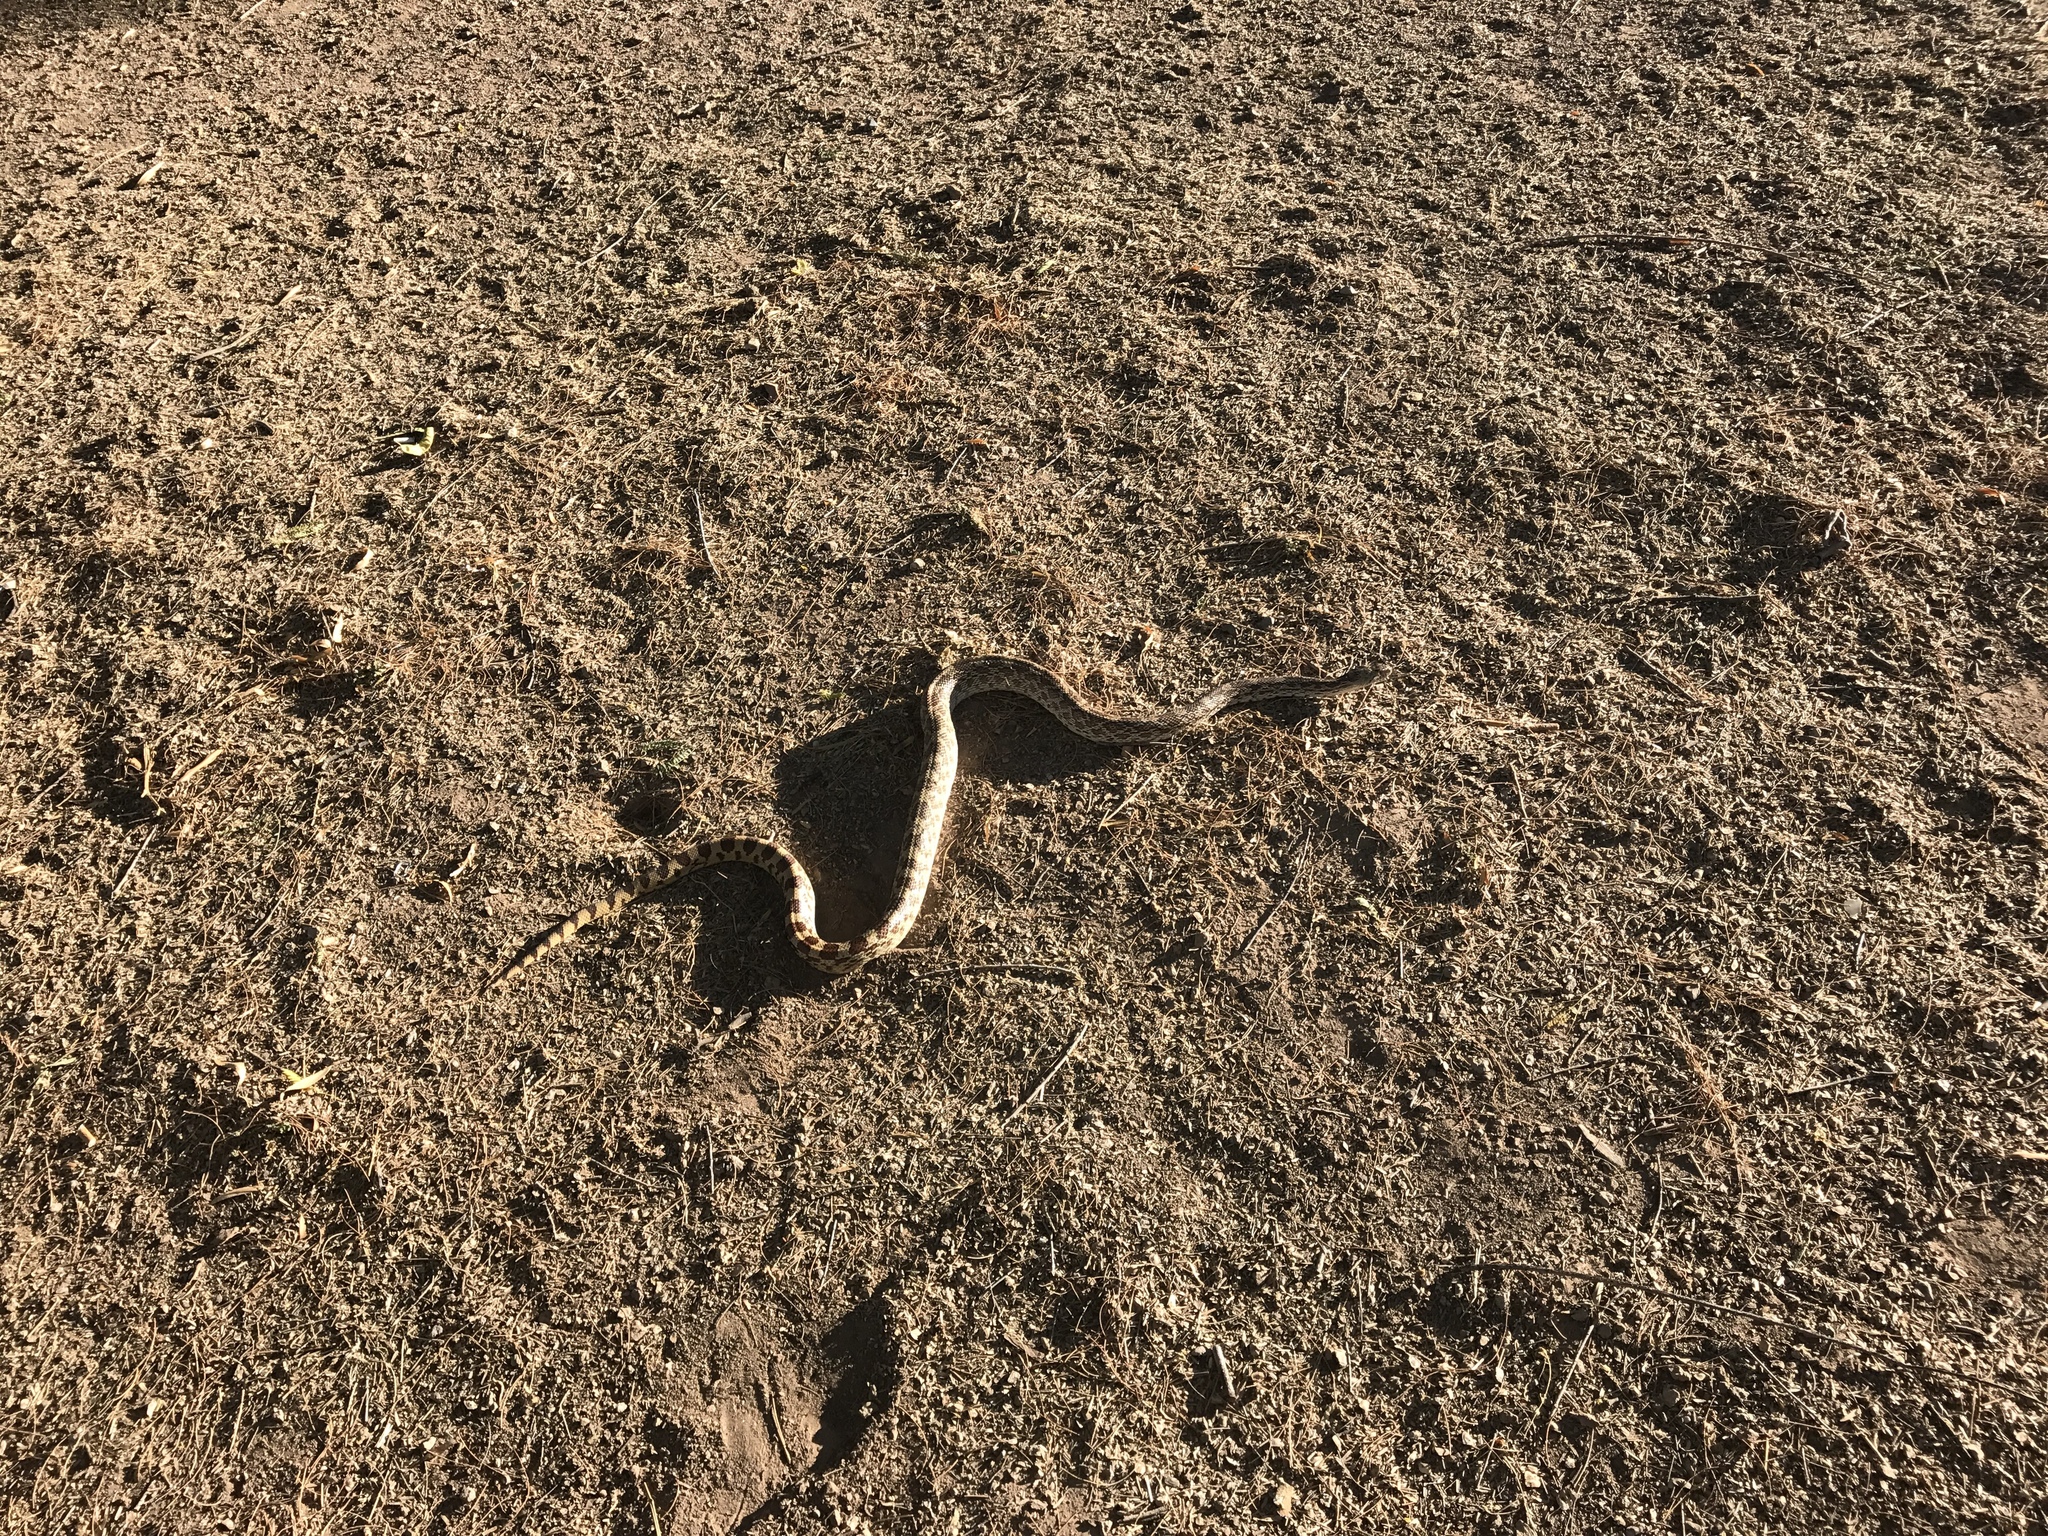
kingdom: Animalia
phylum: Chordata
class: Squamata
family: Colubridae
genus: Pituophis
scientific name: Pituophis catenifer
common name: Gopher snake
